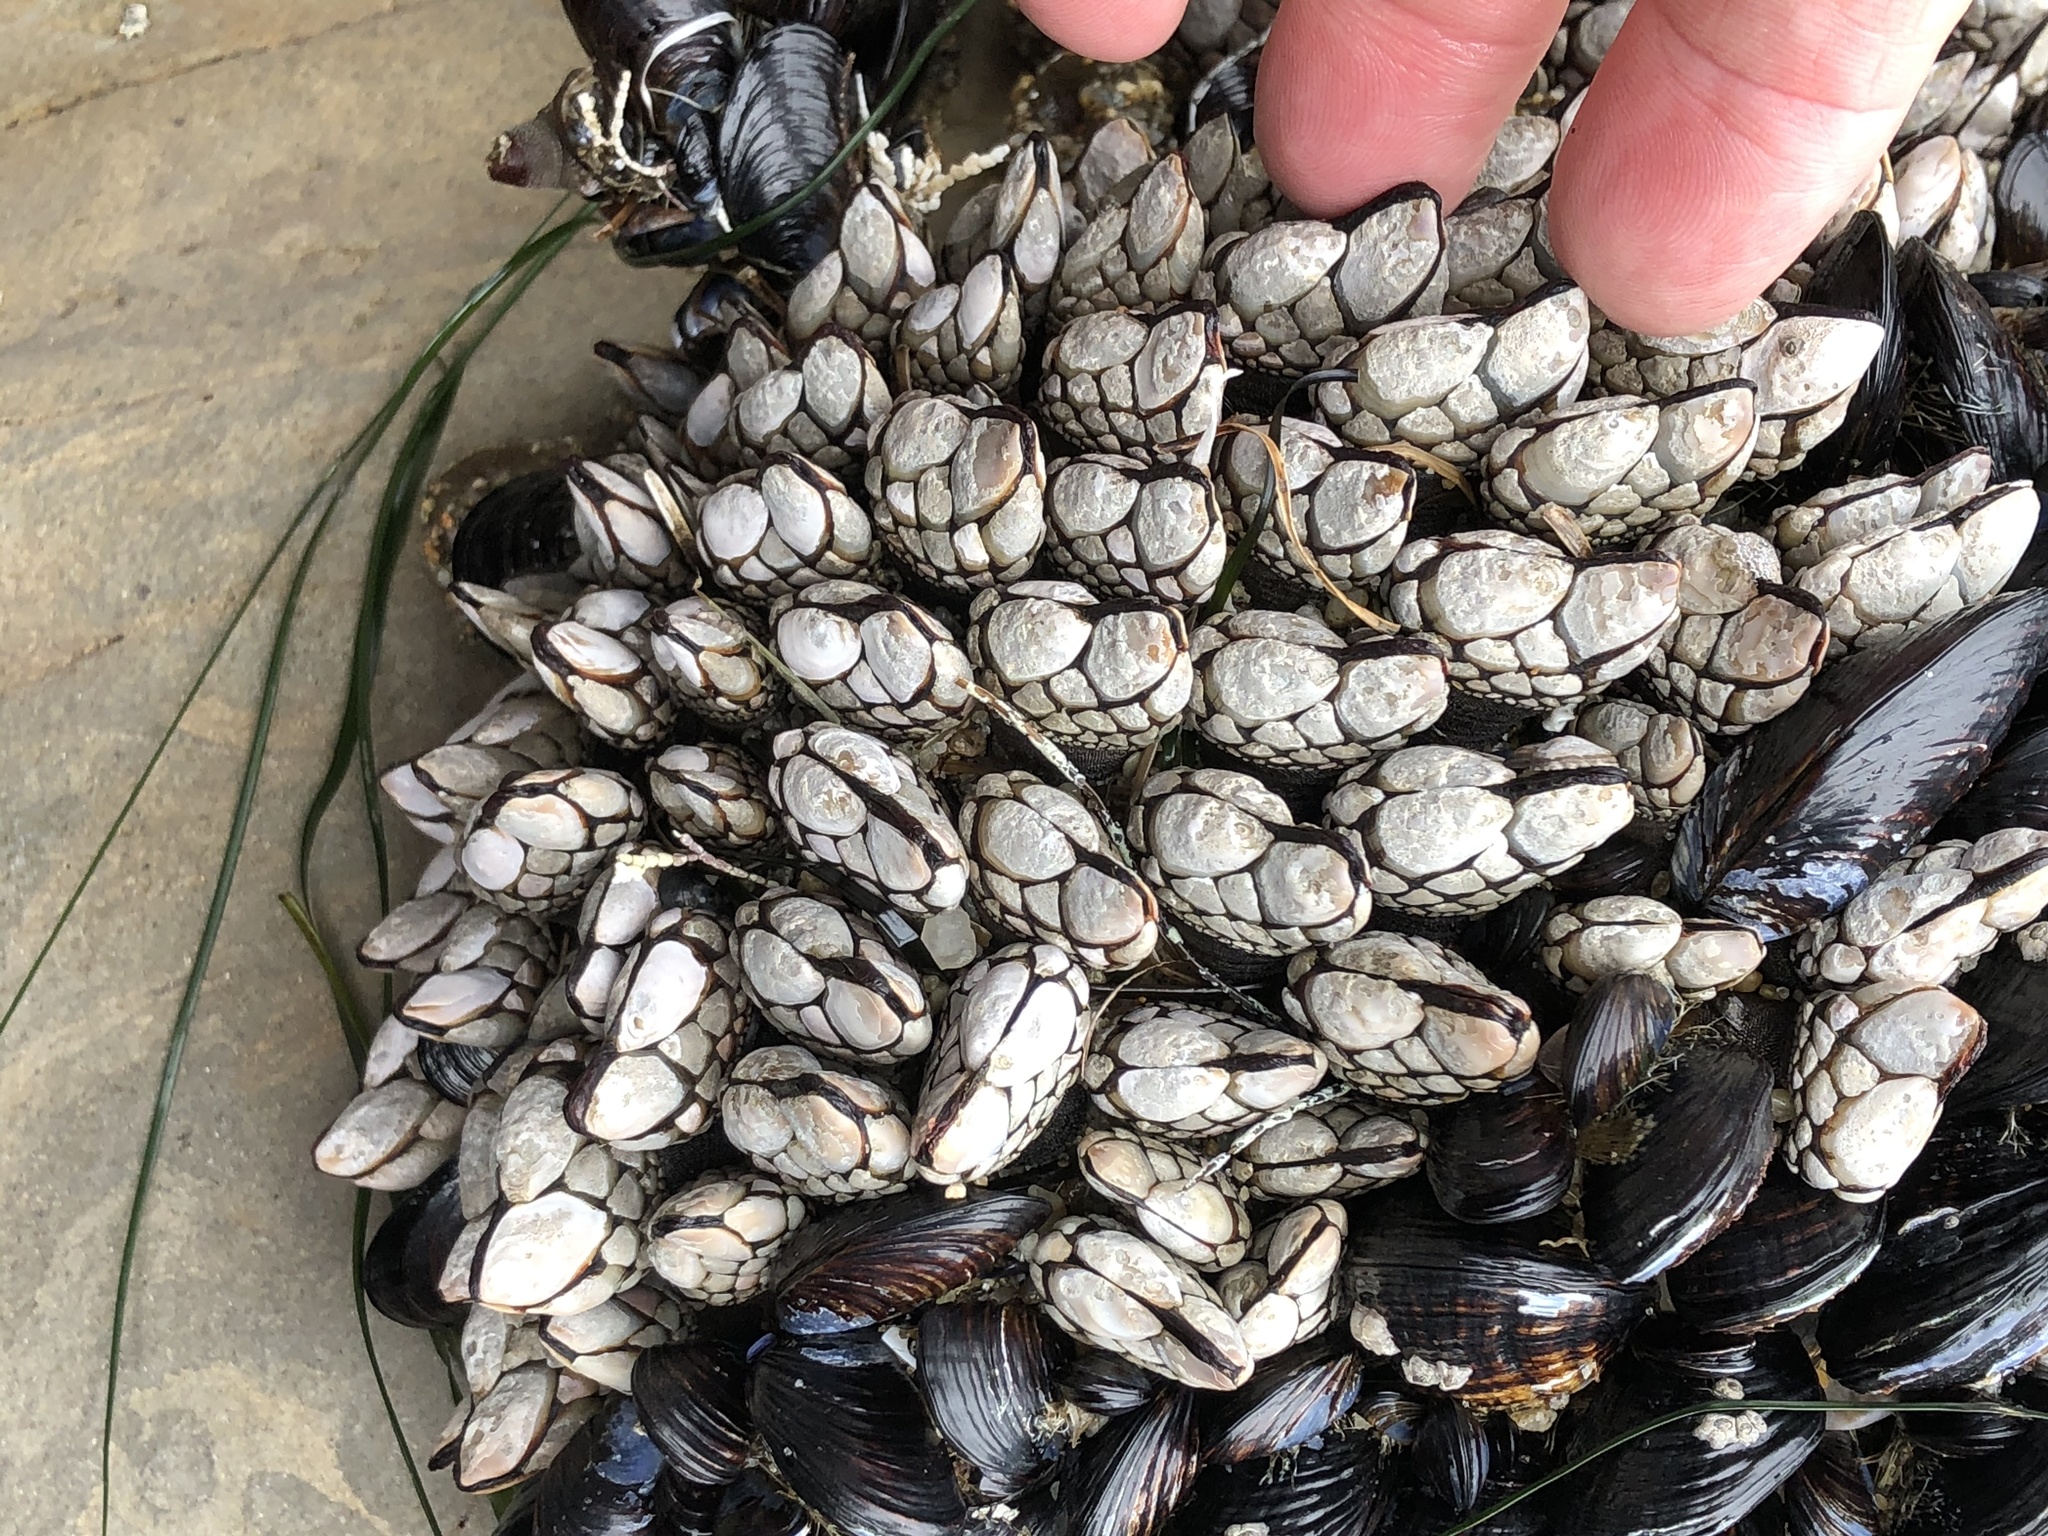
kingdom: Animalia
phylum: Arthropoda
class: Maxillopoda
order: Pedunculata
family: Pollicipedidae
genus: Pollicipes
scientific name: Pollicipes polymerus
